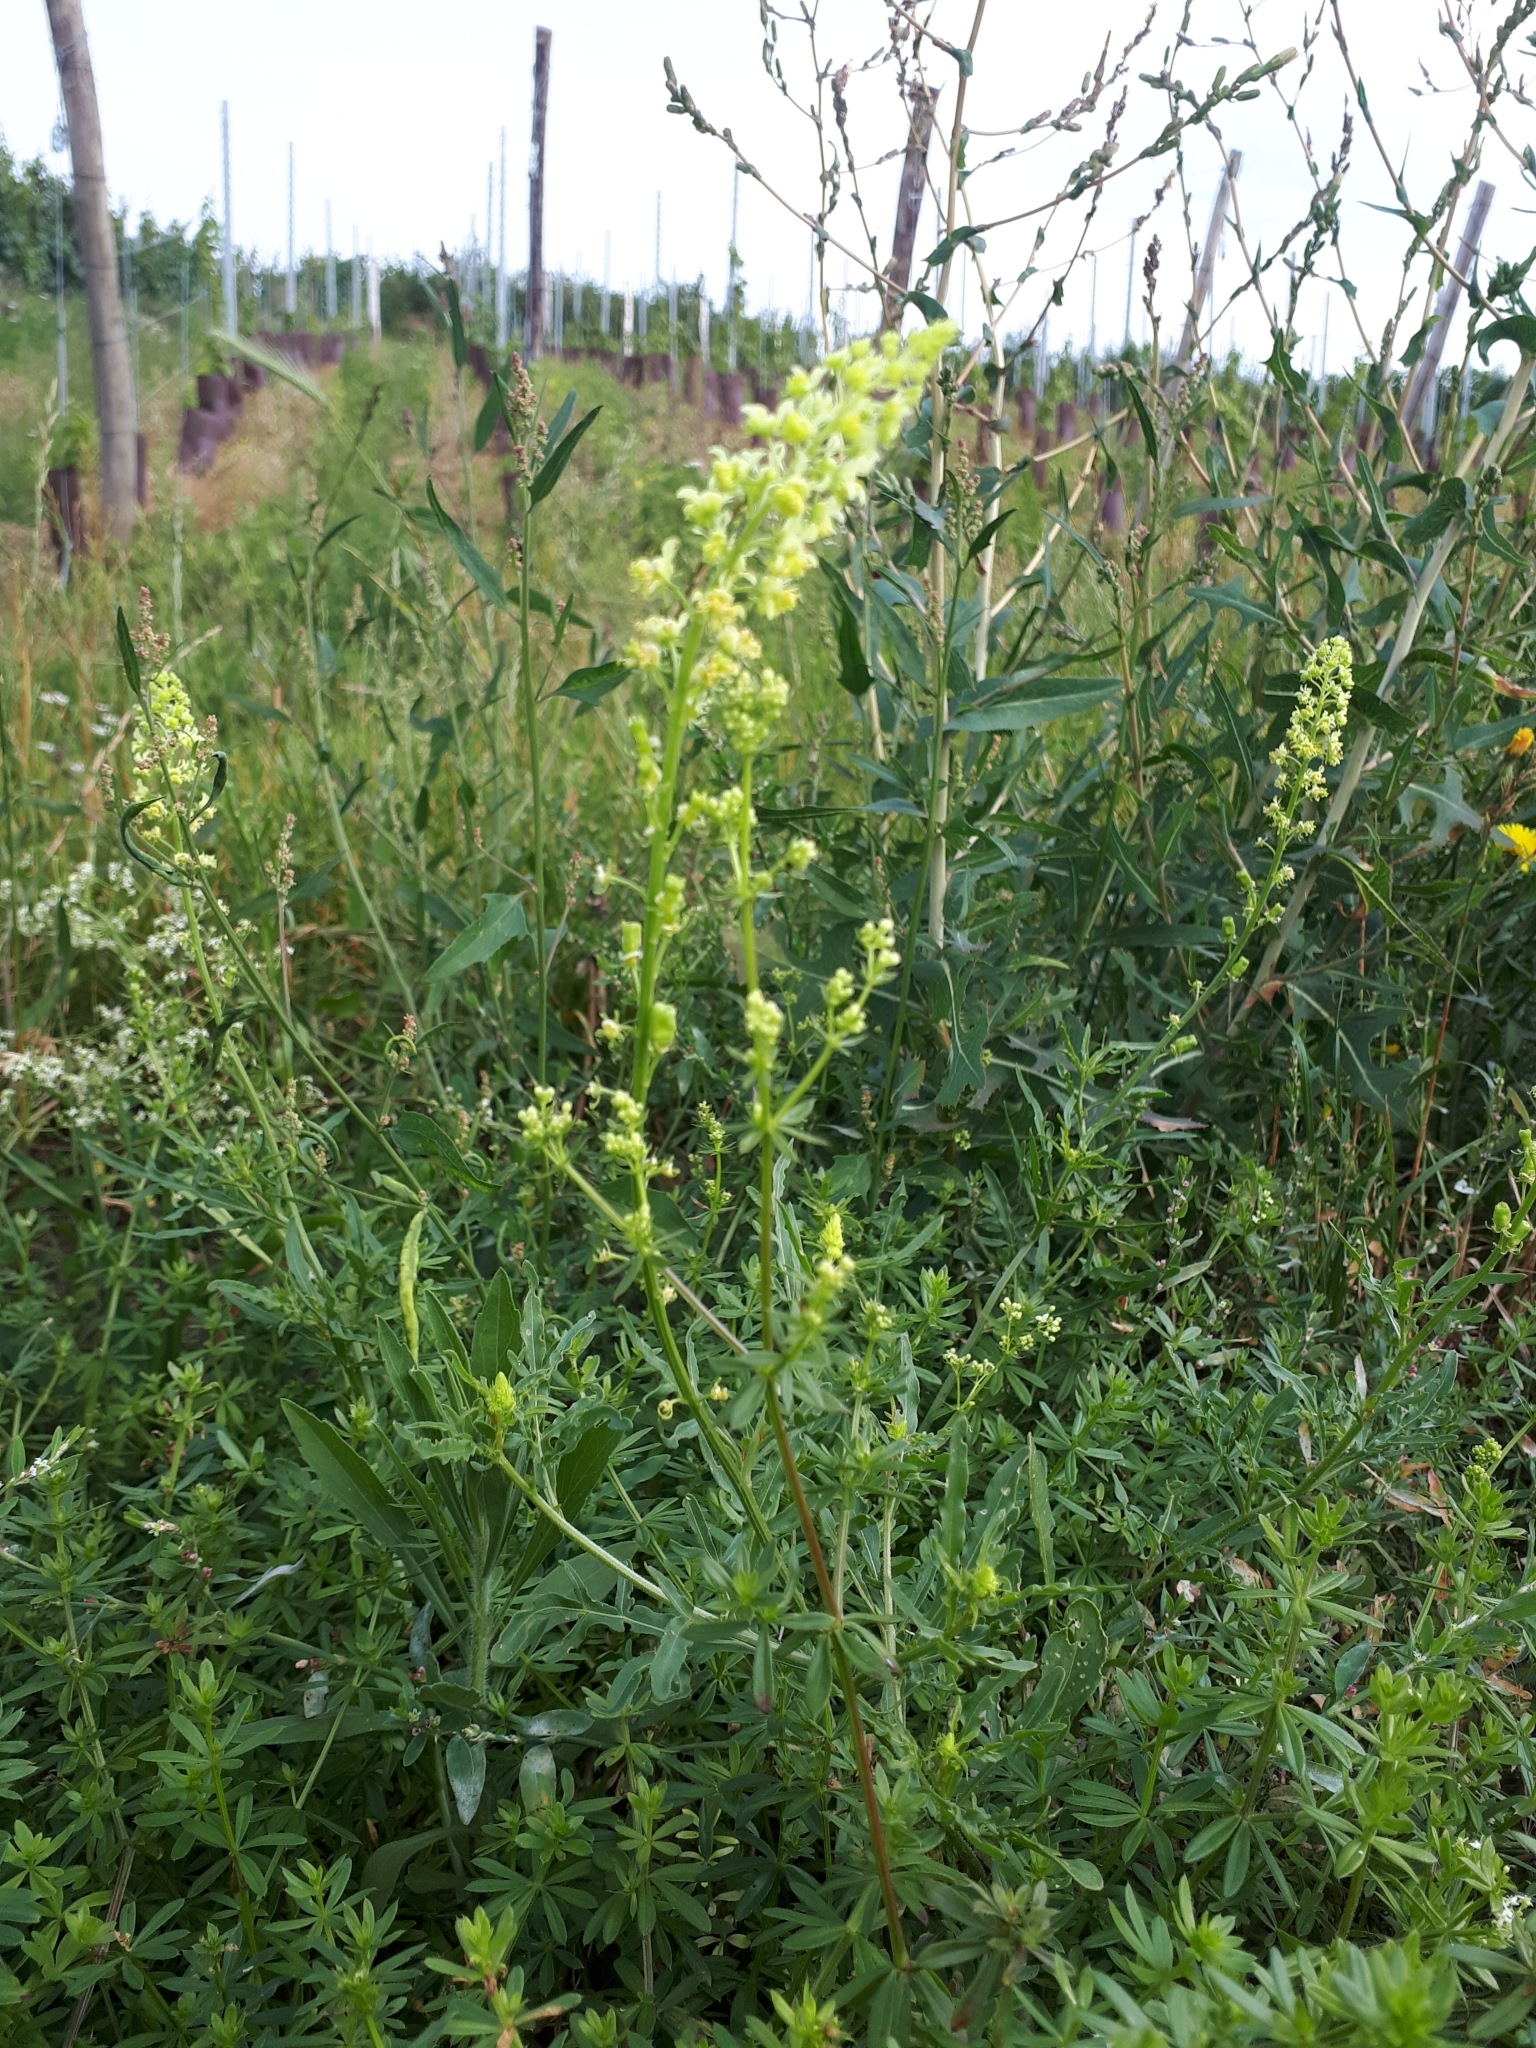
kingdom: Plantae
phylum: Tracheophyta
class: Magnoliopsida
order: Brassicales
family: Resedaceae
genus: Reseda
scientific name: Reseda lutea
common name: Wild mignonette
